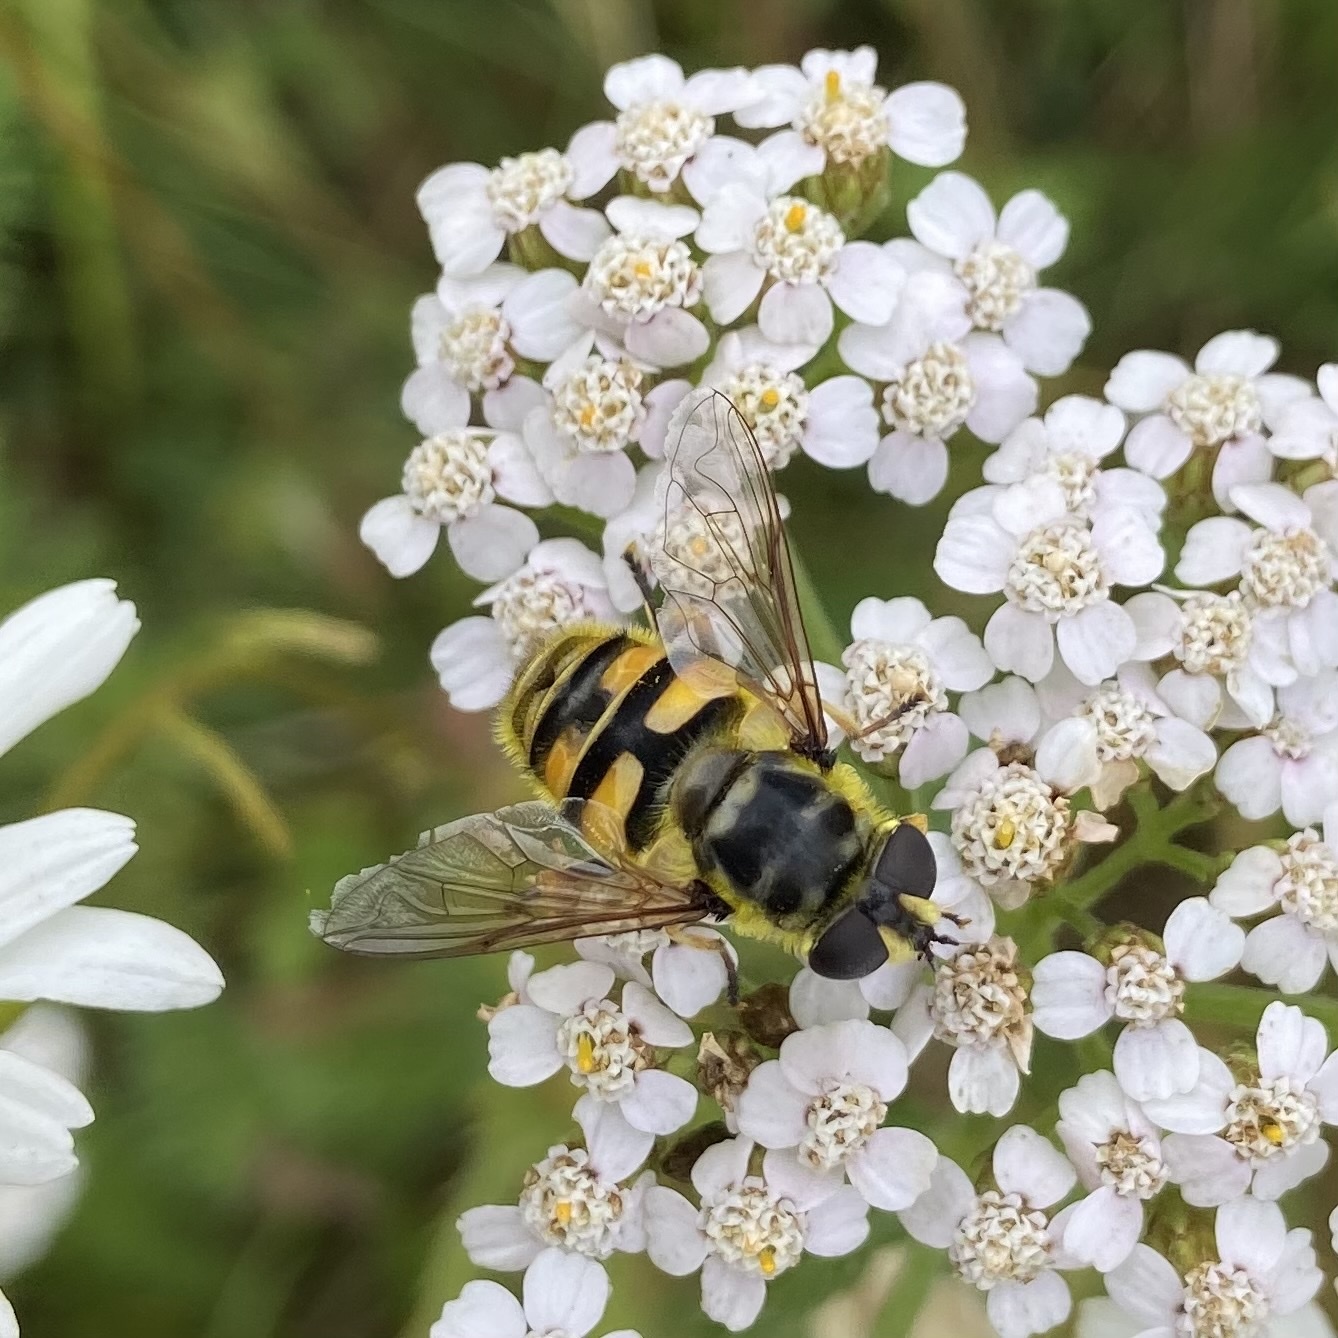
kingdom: Animalia
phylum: Arthropoda
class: Insecta
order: Diptera
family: Syrphidae
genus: Myathropa
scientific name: Myathropa florea
